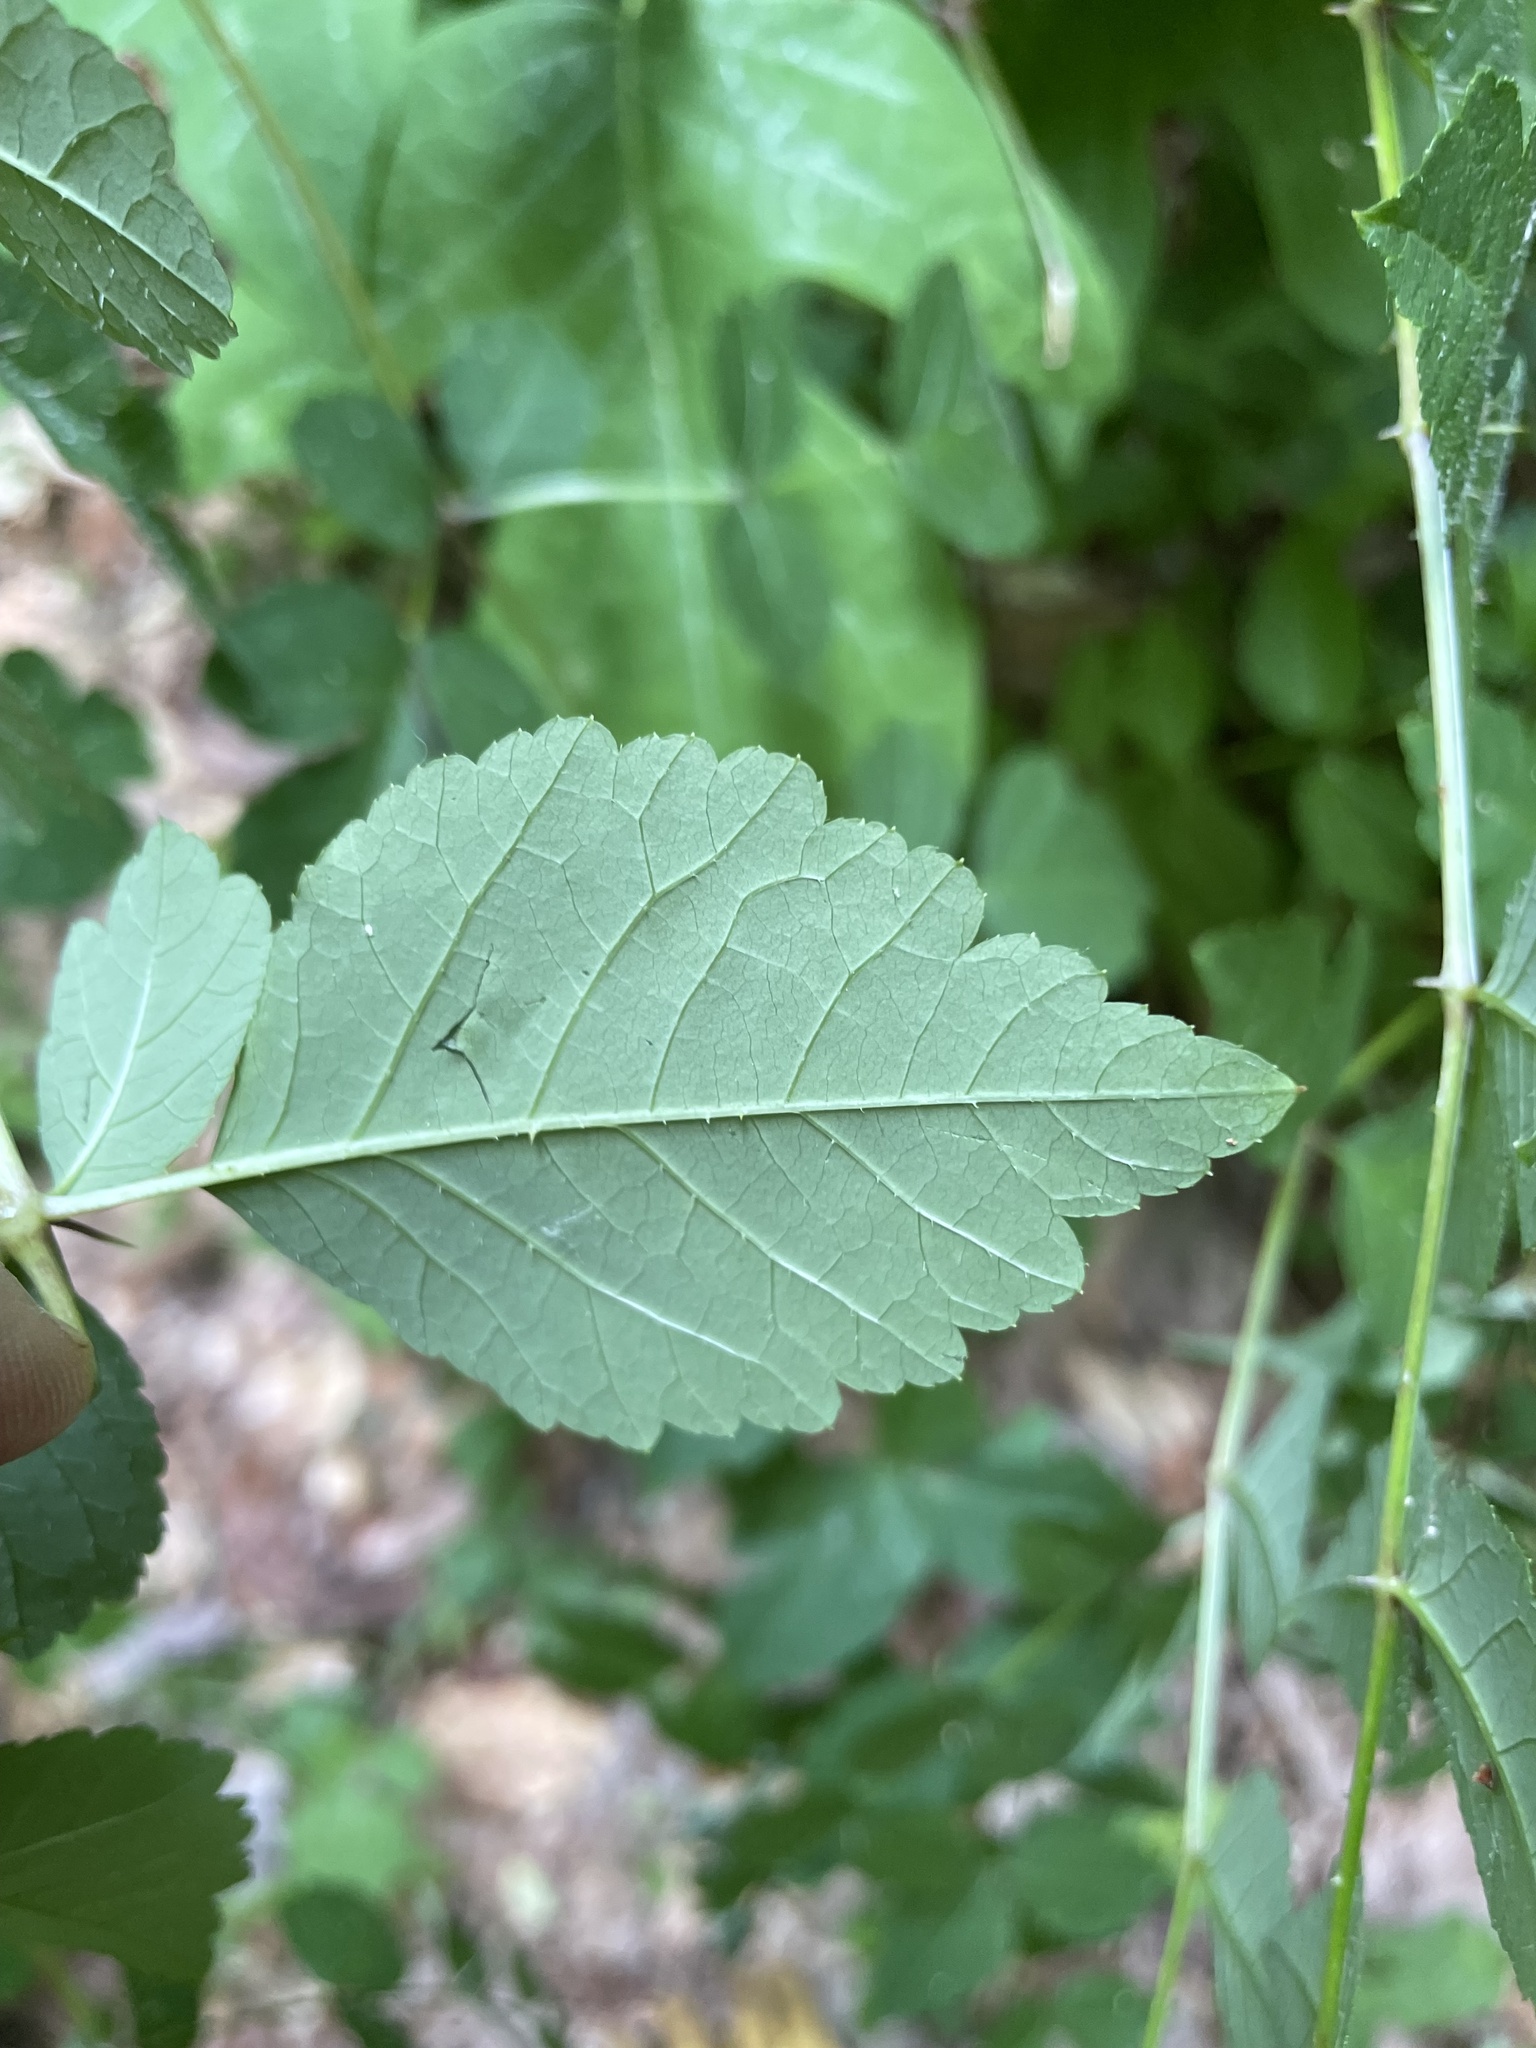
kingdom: Plantae
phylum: Tracheophyta
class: Magnoliopsida
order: Apiales
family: Araliaceae
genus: Aralia
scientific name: Aralia elata
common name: Japanese angelica-tree
